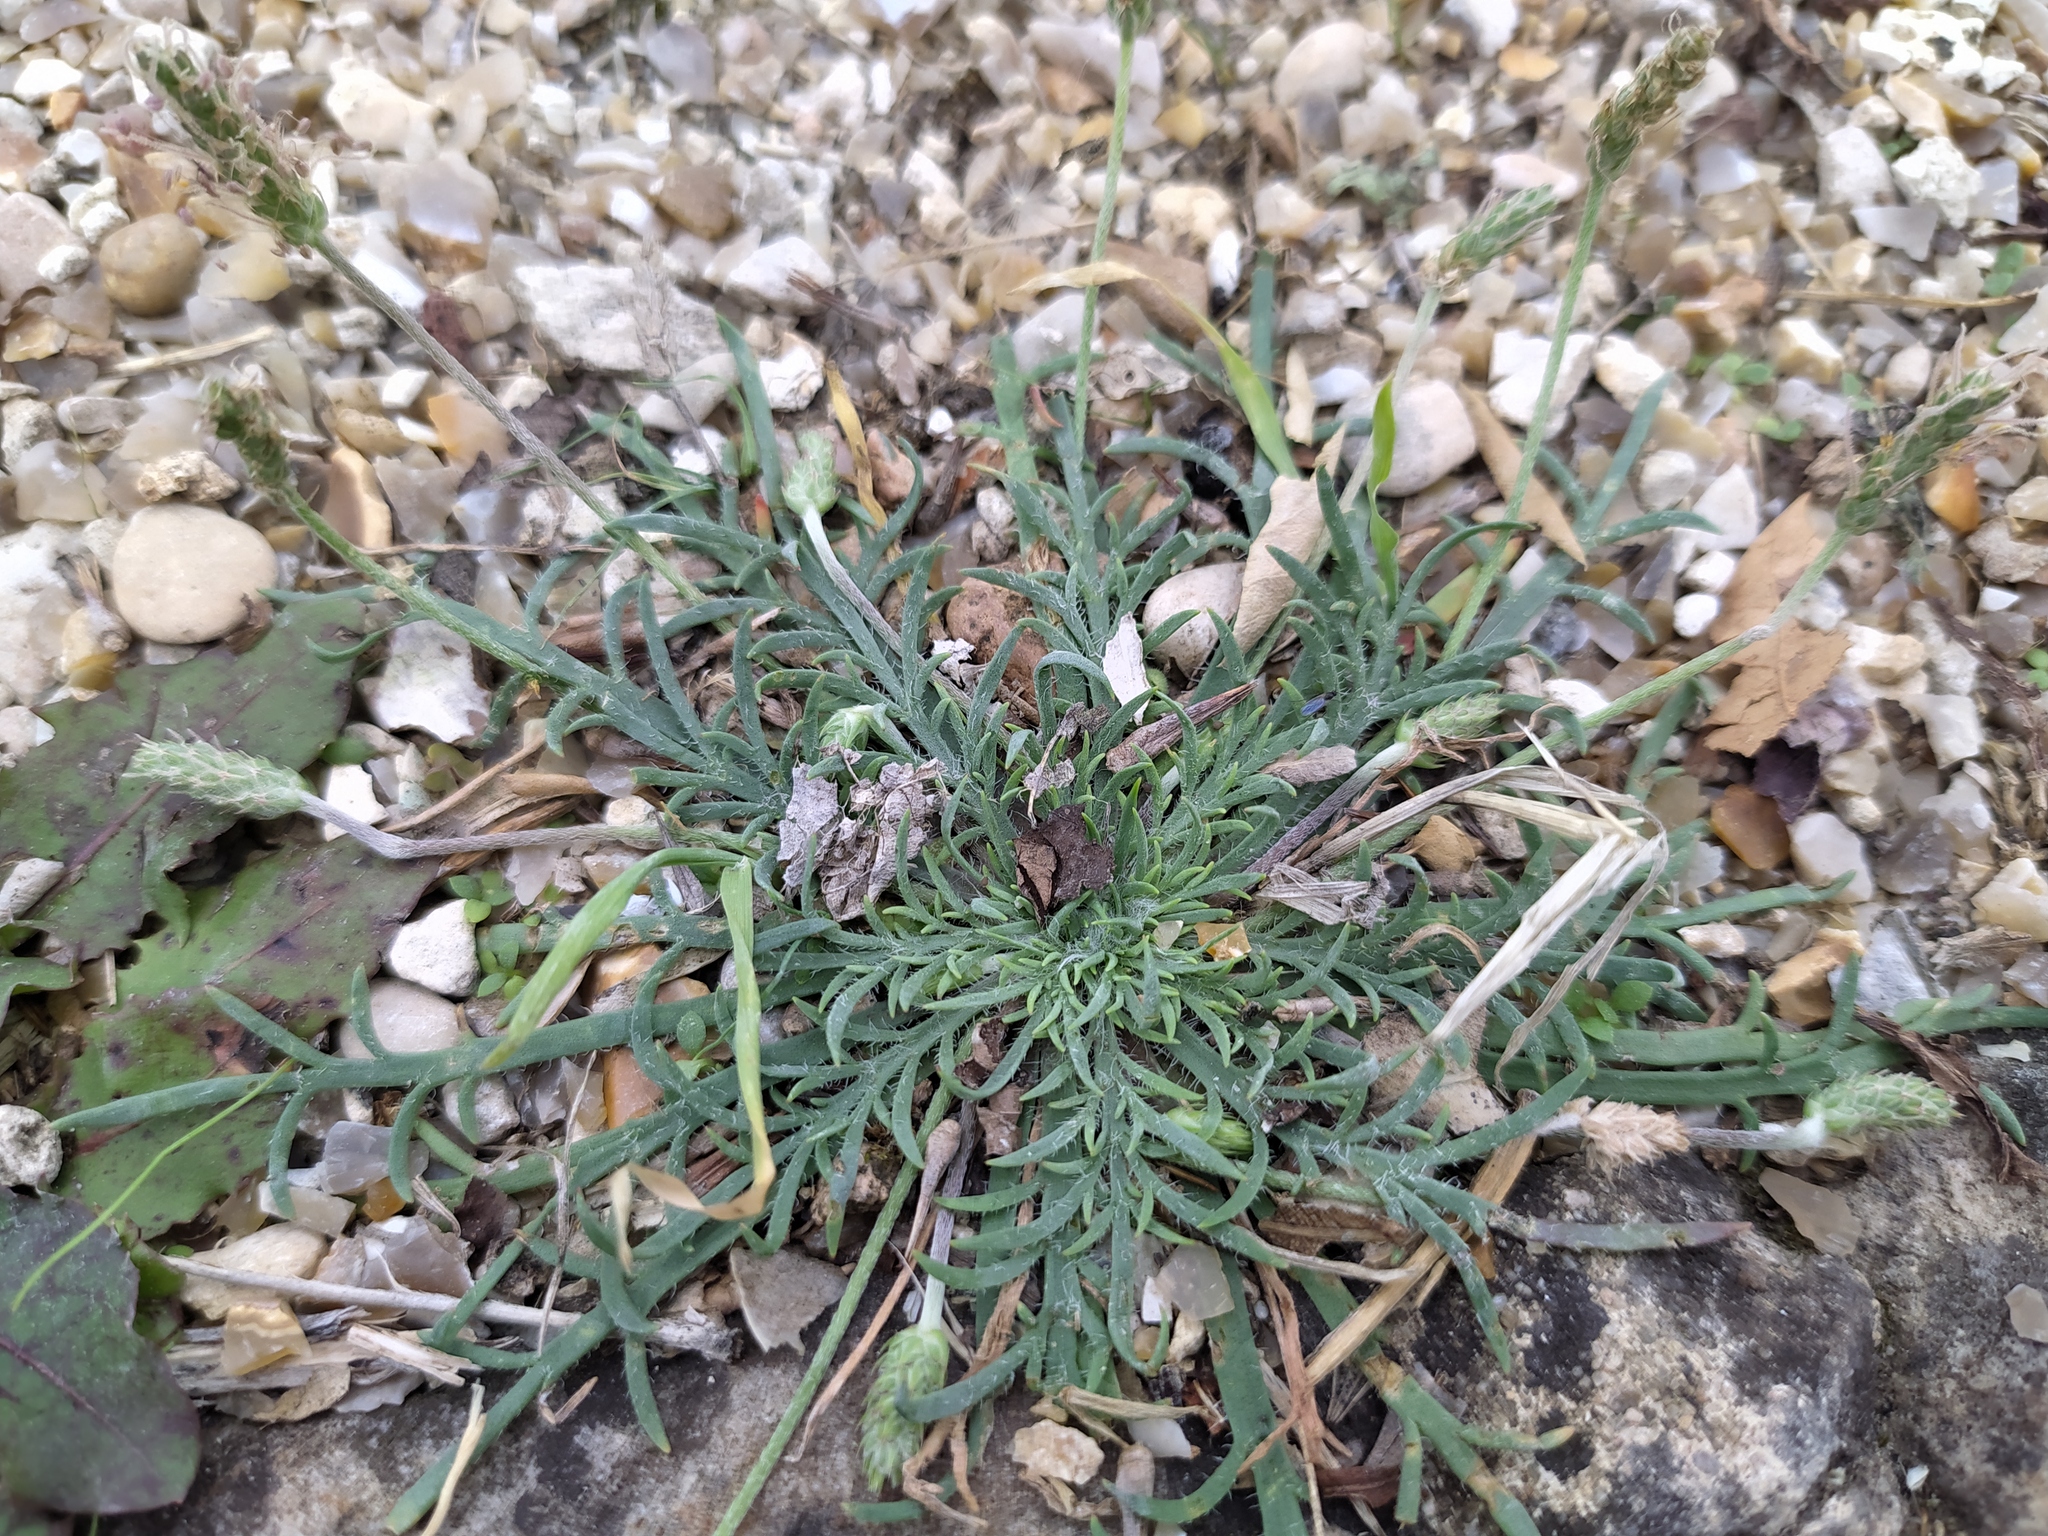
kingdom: Plantae
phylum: Tracheophyta
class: Magnoliopsida
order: Lamiales
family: Plantaginaceae
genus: Plantago
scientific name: Plantago coronopus
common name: Buck's-horn plantain
